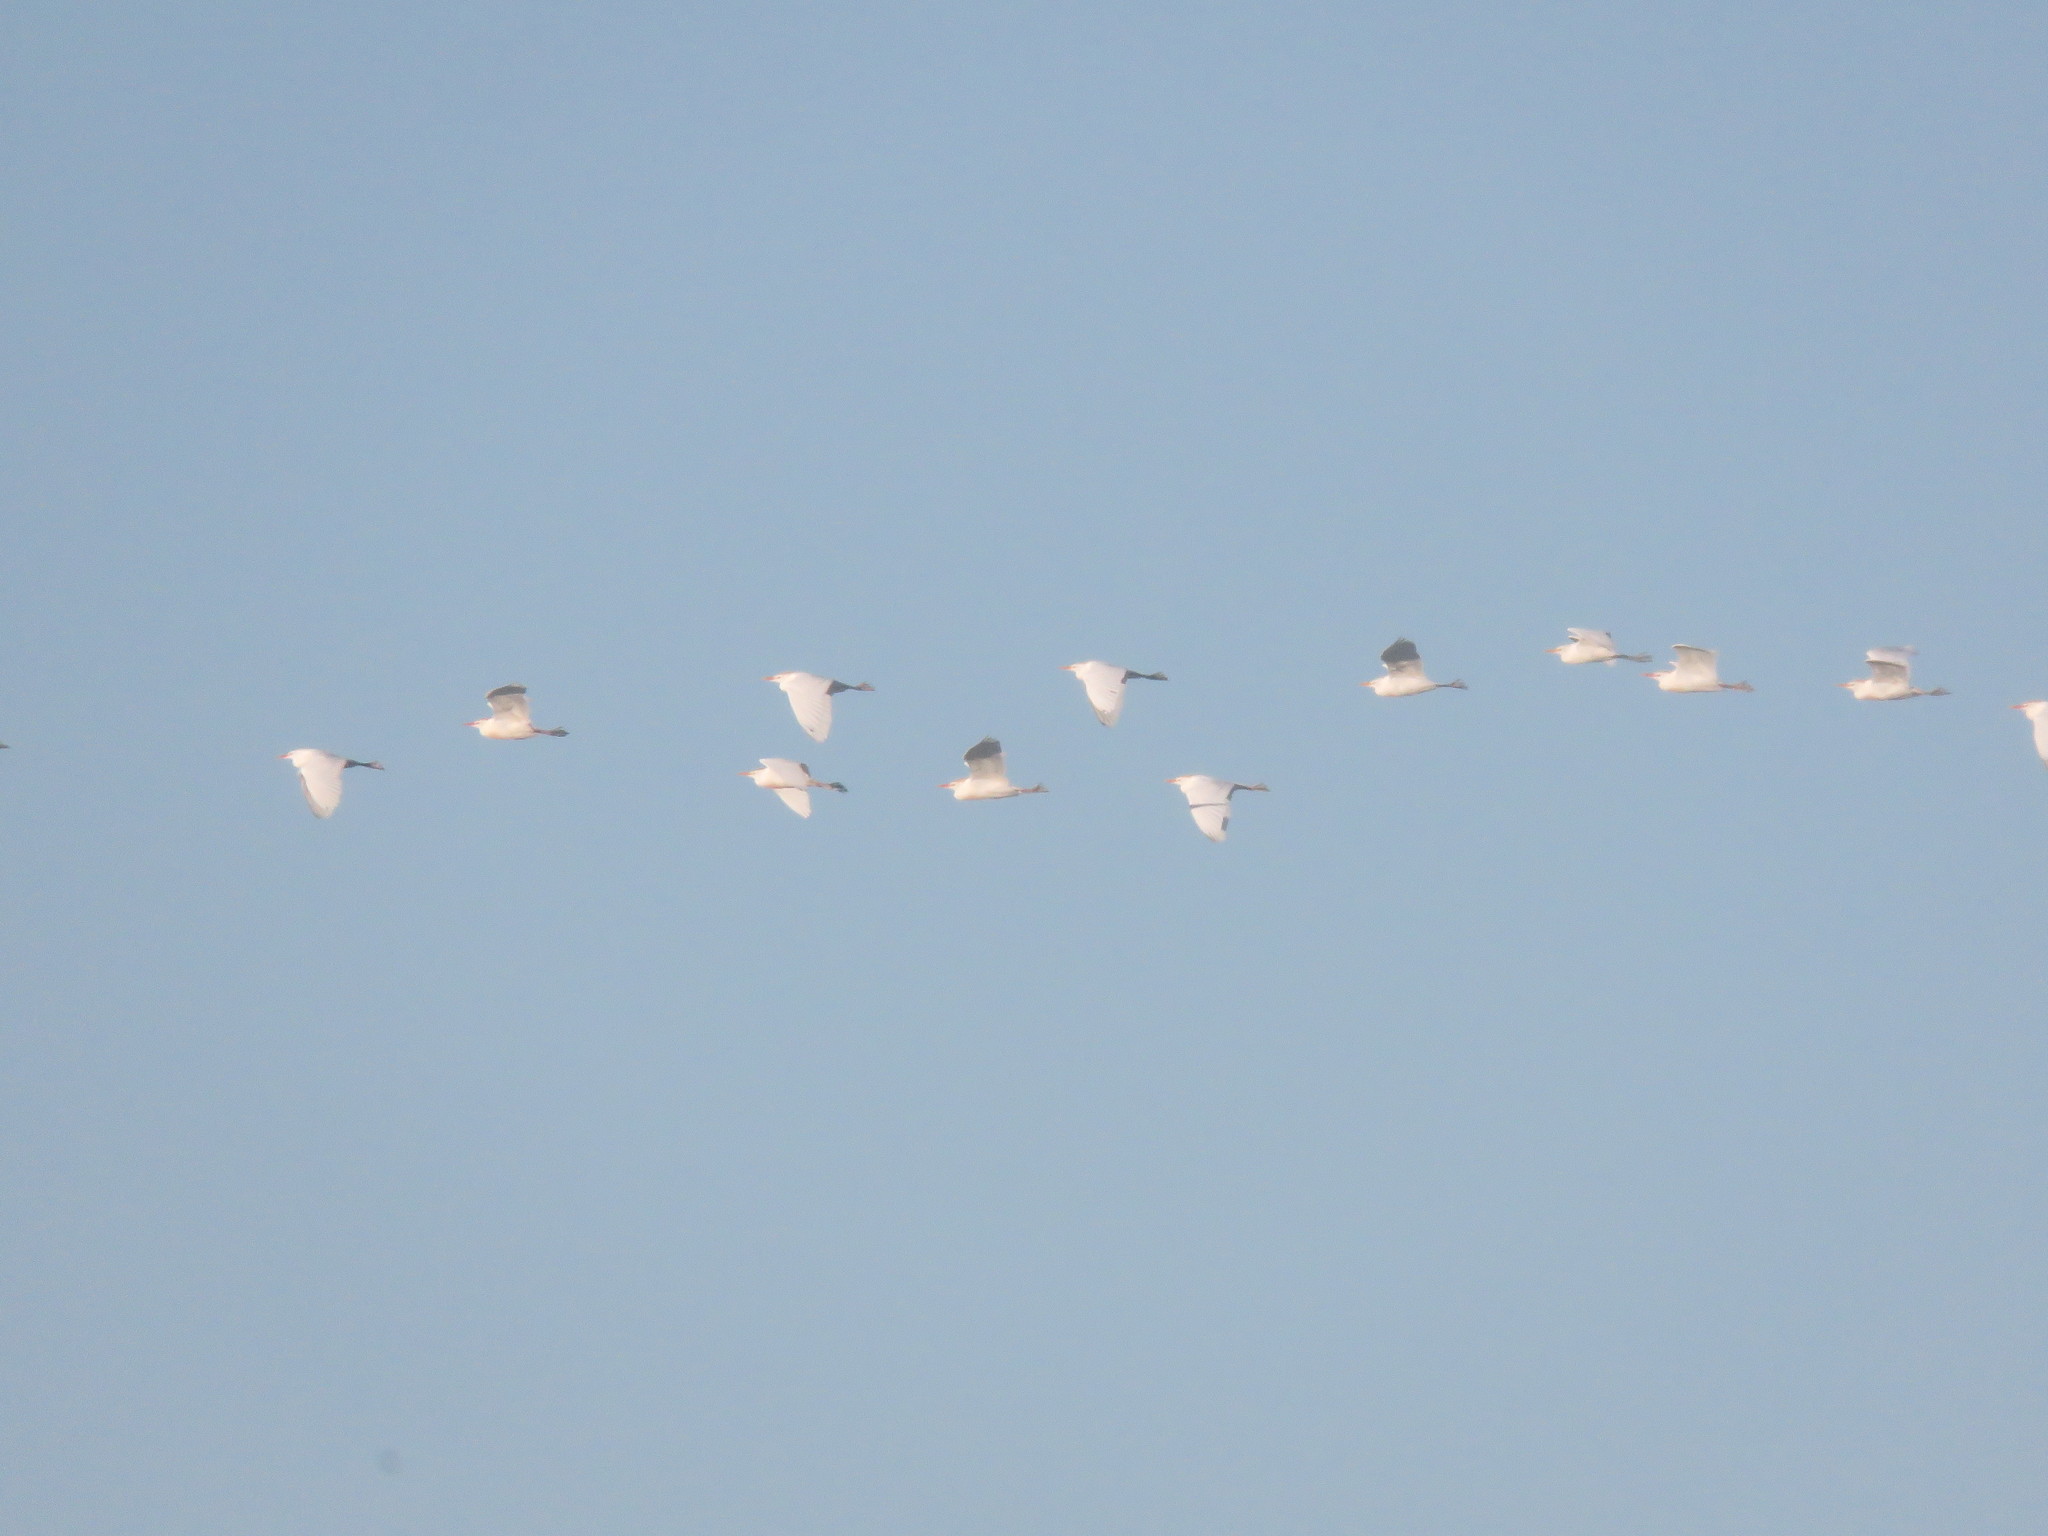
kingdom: Animalia
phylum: Chordata
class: Aves
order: Pelecaniformes
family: Ardeidae
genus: Bubulcus
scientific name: Bubulcus ibis
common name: Cattle egret
